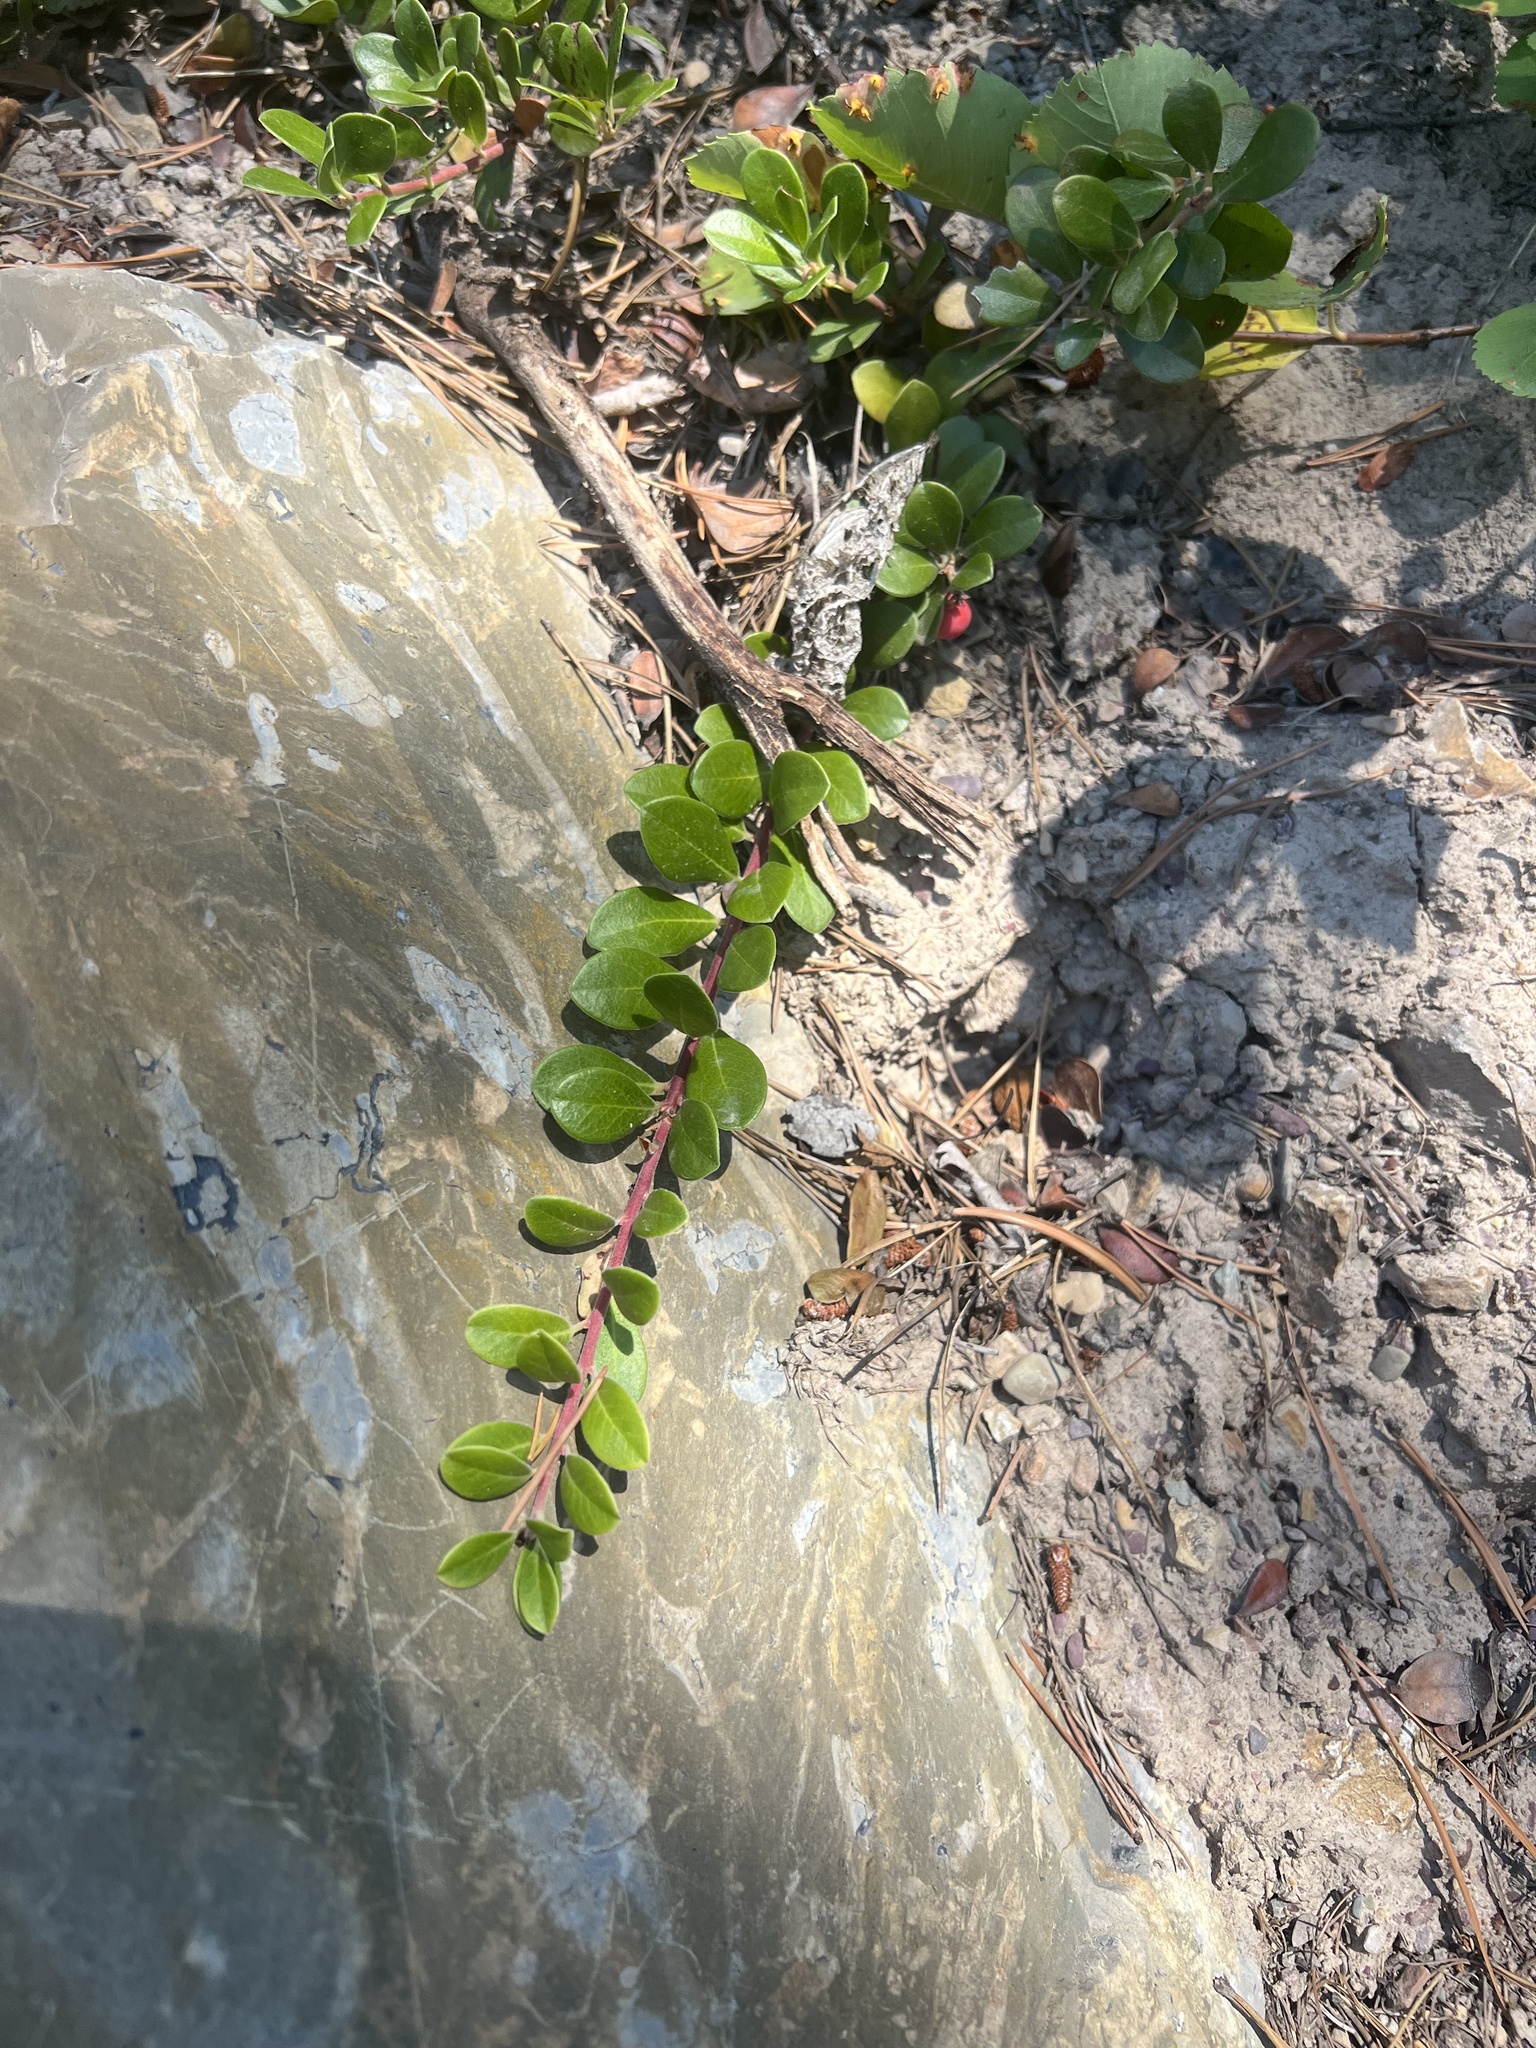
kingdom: Plantae
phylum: Tracheophyta
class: Magnoliopsida
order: Ericales
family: Ericaceae
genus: Arctostaphylos
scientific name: Arctostaphylos uva-ursi
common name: Bearberry
